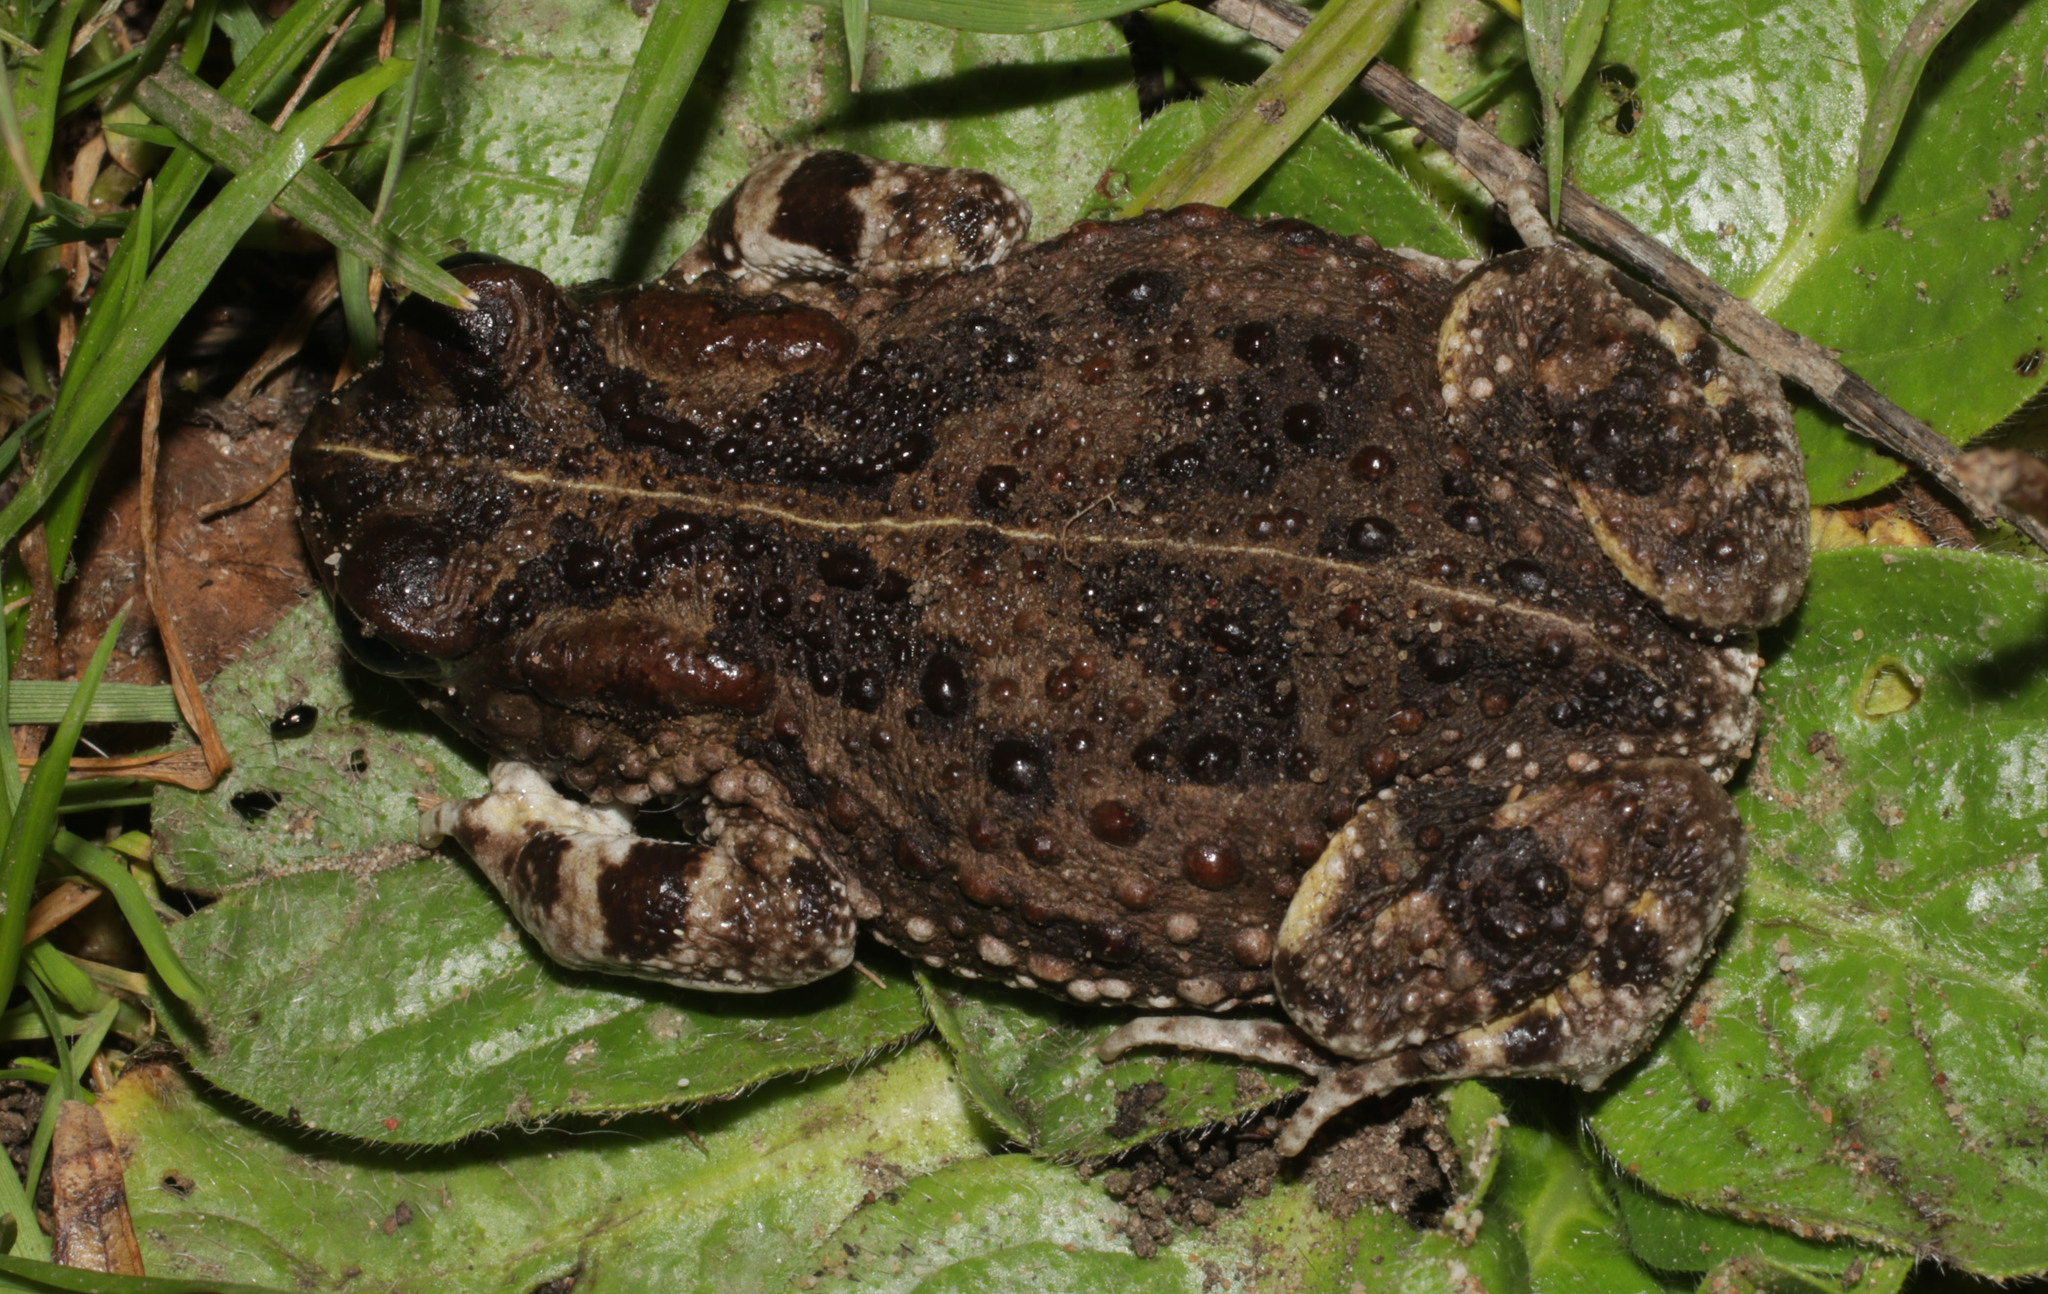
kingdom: Animalia
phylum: Chordata
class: Amphibia
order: Anura
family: Bufonidae
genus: Vandijkophrynus
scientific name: Vandijkophrynus angusticeps
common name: Sand toad
